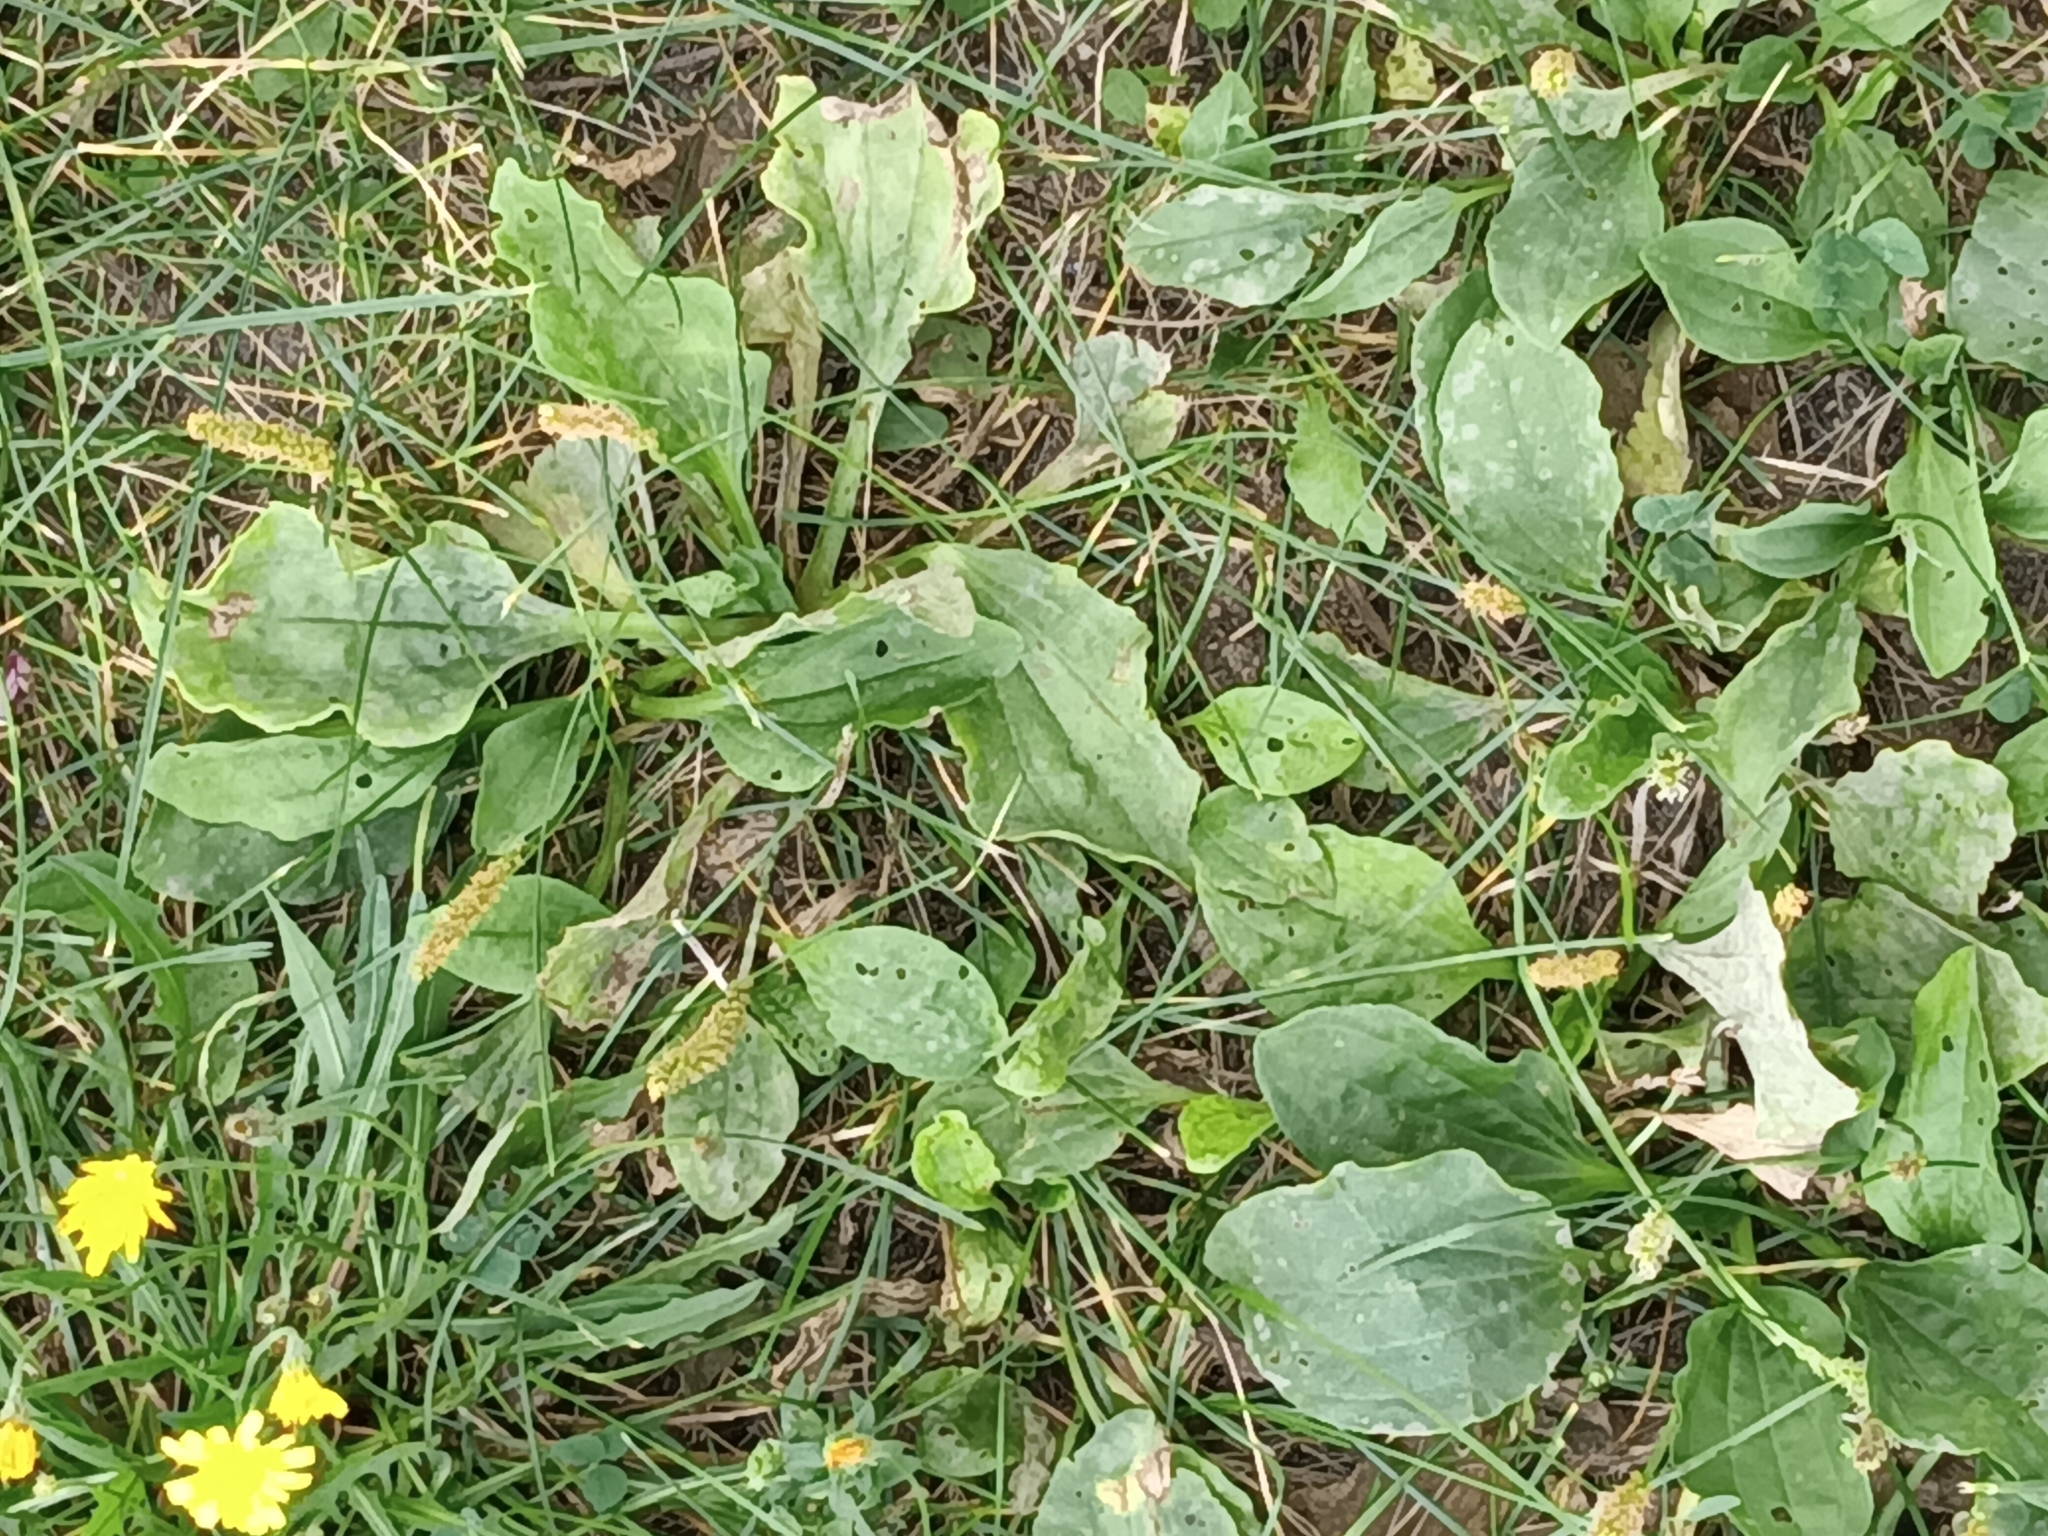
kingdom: Plantae
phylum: Tracheophyta
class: Magnoliopsida
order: Lamiales
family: Plantaginaceae
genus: Plantago
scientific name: Plantago major
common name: Common plantain
